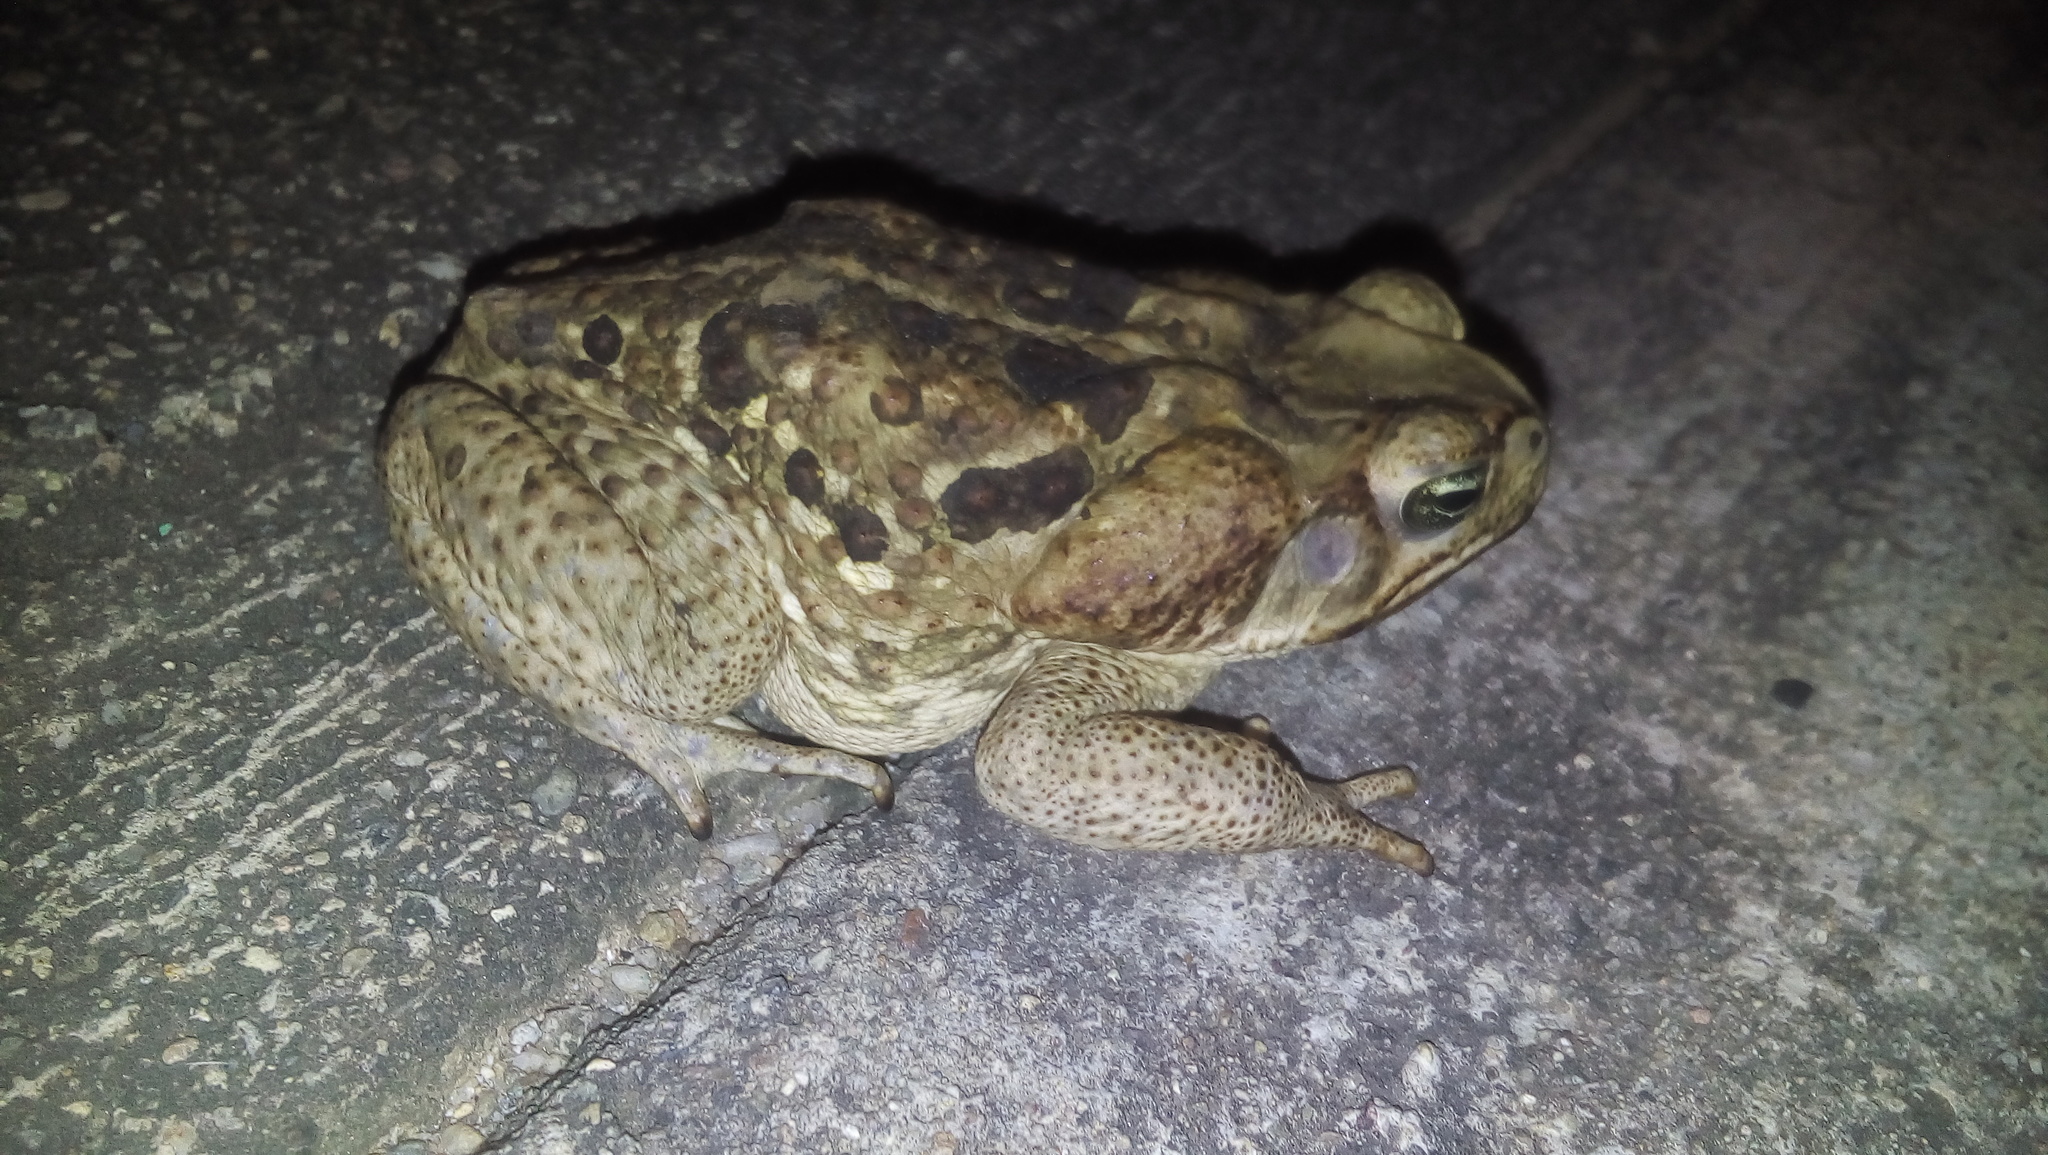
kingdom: Animalia
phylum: Chordata
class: Amphibia
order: Anura
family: Bufonidae
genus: Rhinella
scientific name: Rhinella horribilis
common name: Mesoamerican cane toad
